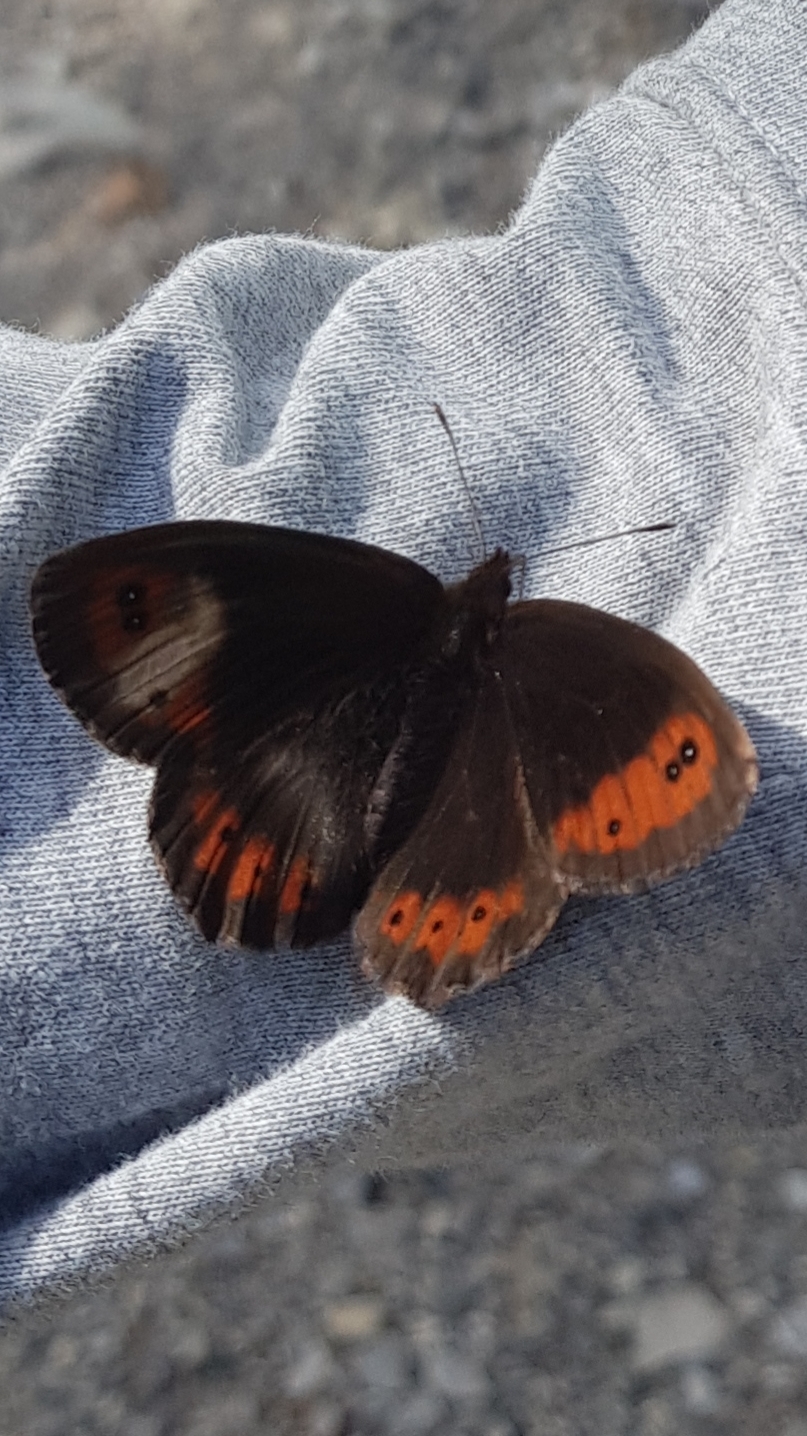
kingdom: Animalia
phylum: Arthropoda
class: Insecta
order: Lepidoptera
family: Nymphalidae
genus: Erebia
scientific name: Erebia aethiops
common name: Scotch argus
